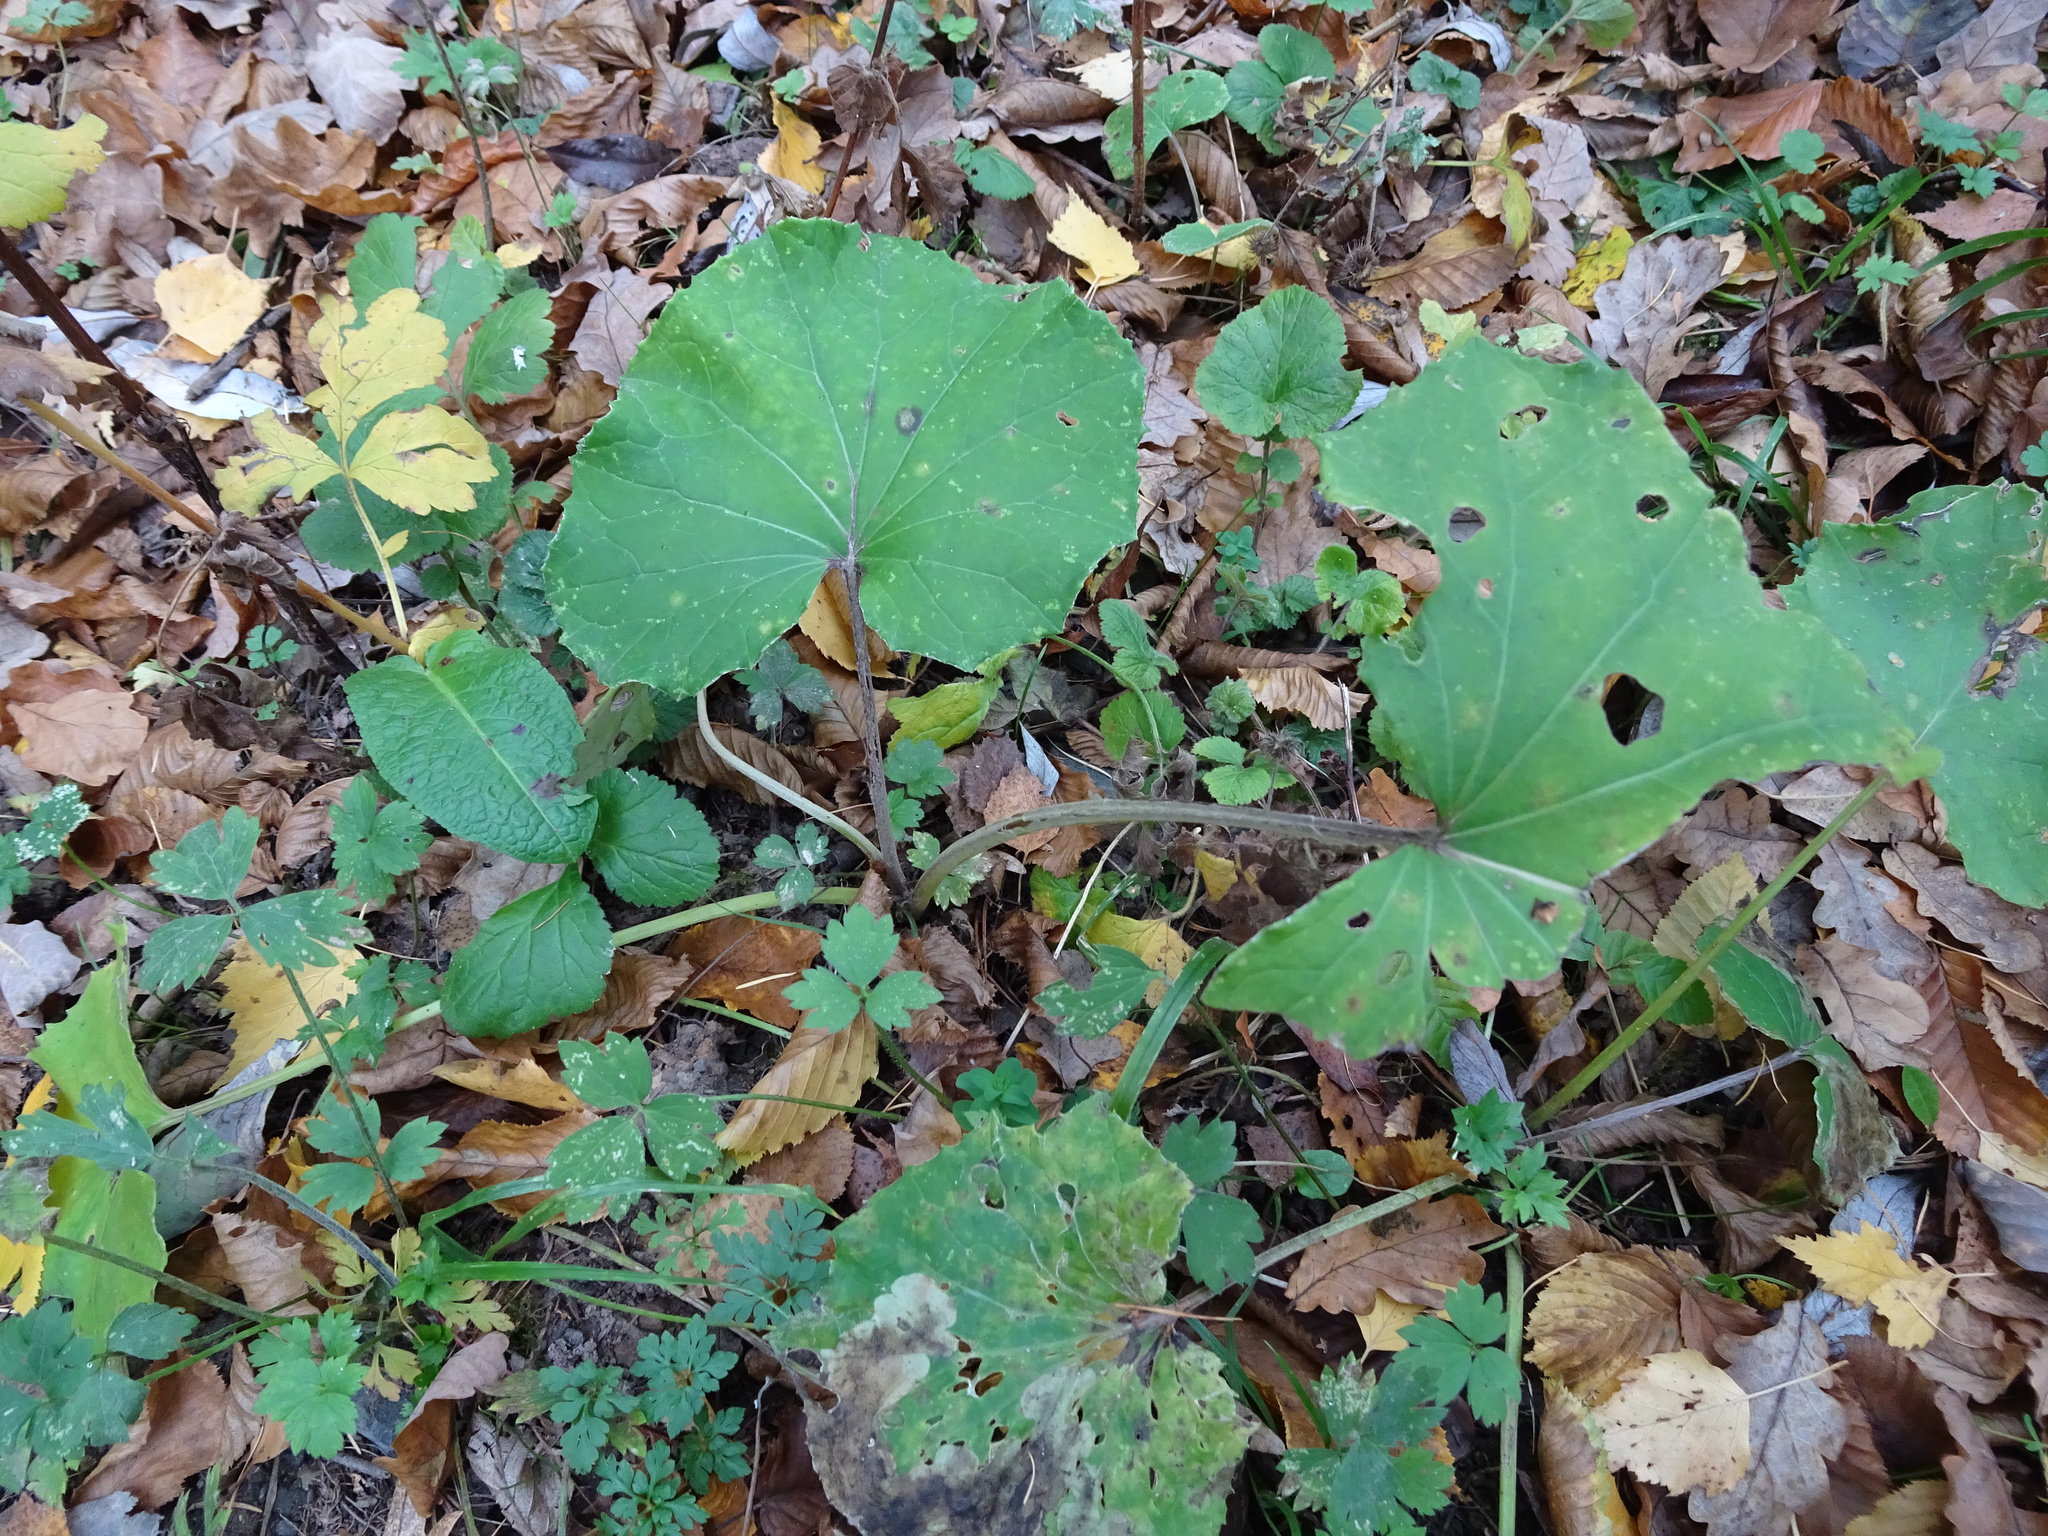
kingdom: Plantae
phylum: Tracheophyta
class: Magnoliopsida
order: Asterales
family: Asteraceae
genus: Tussilago
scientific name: Tussilago farfara
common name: Coltsfoot
